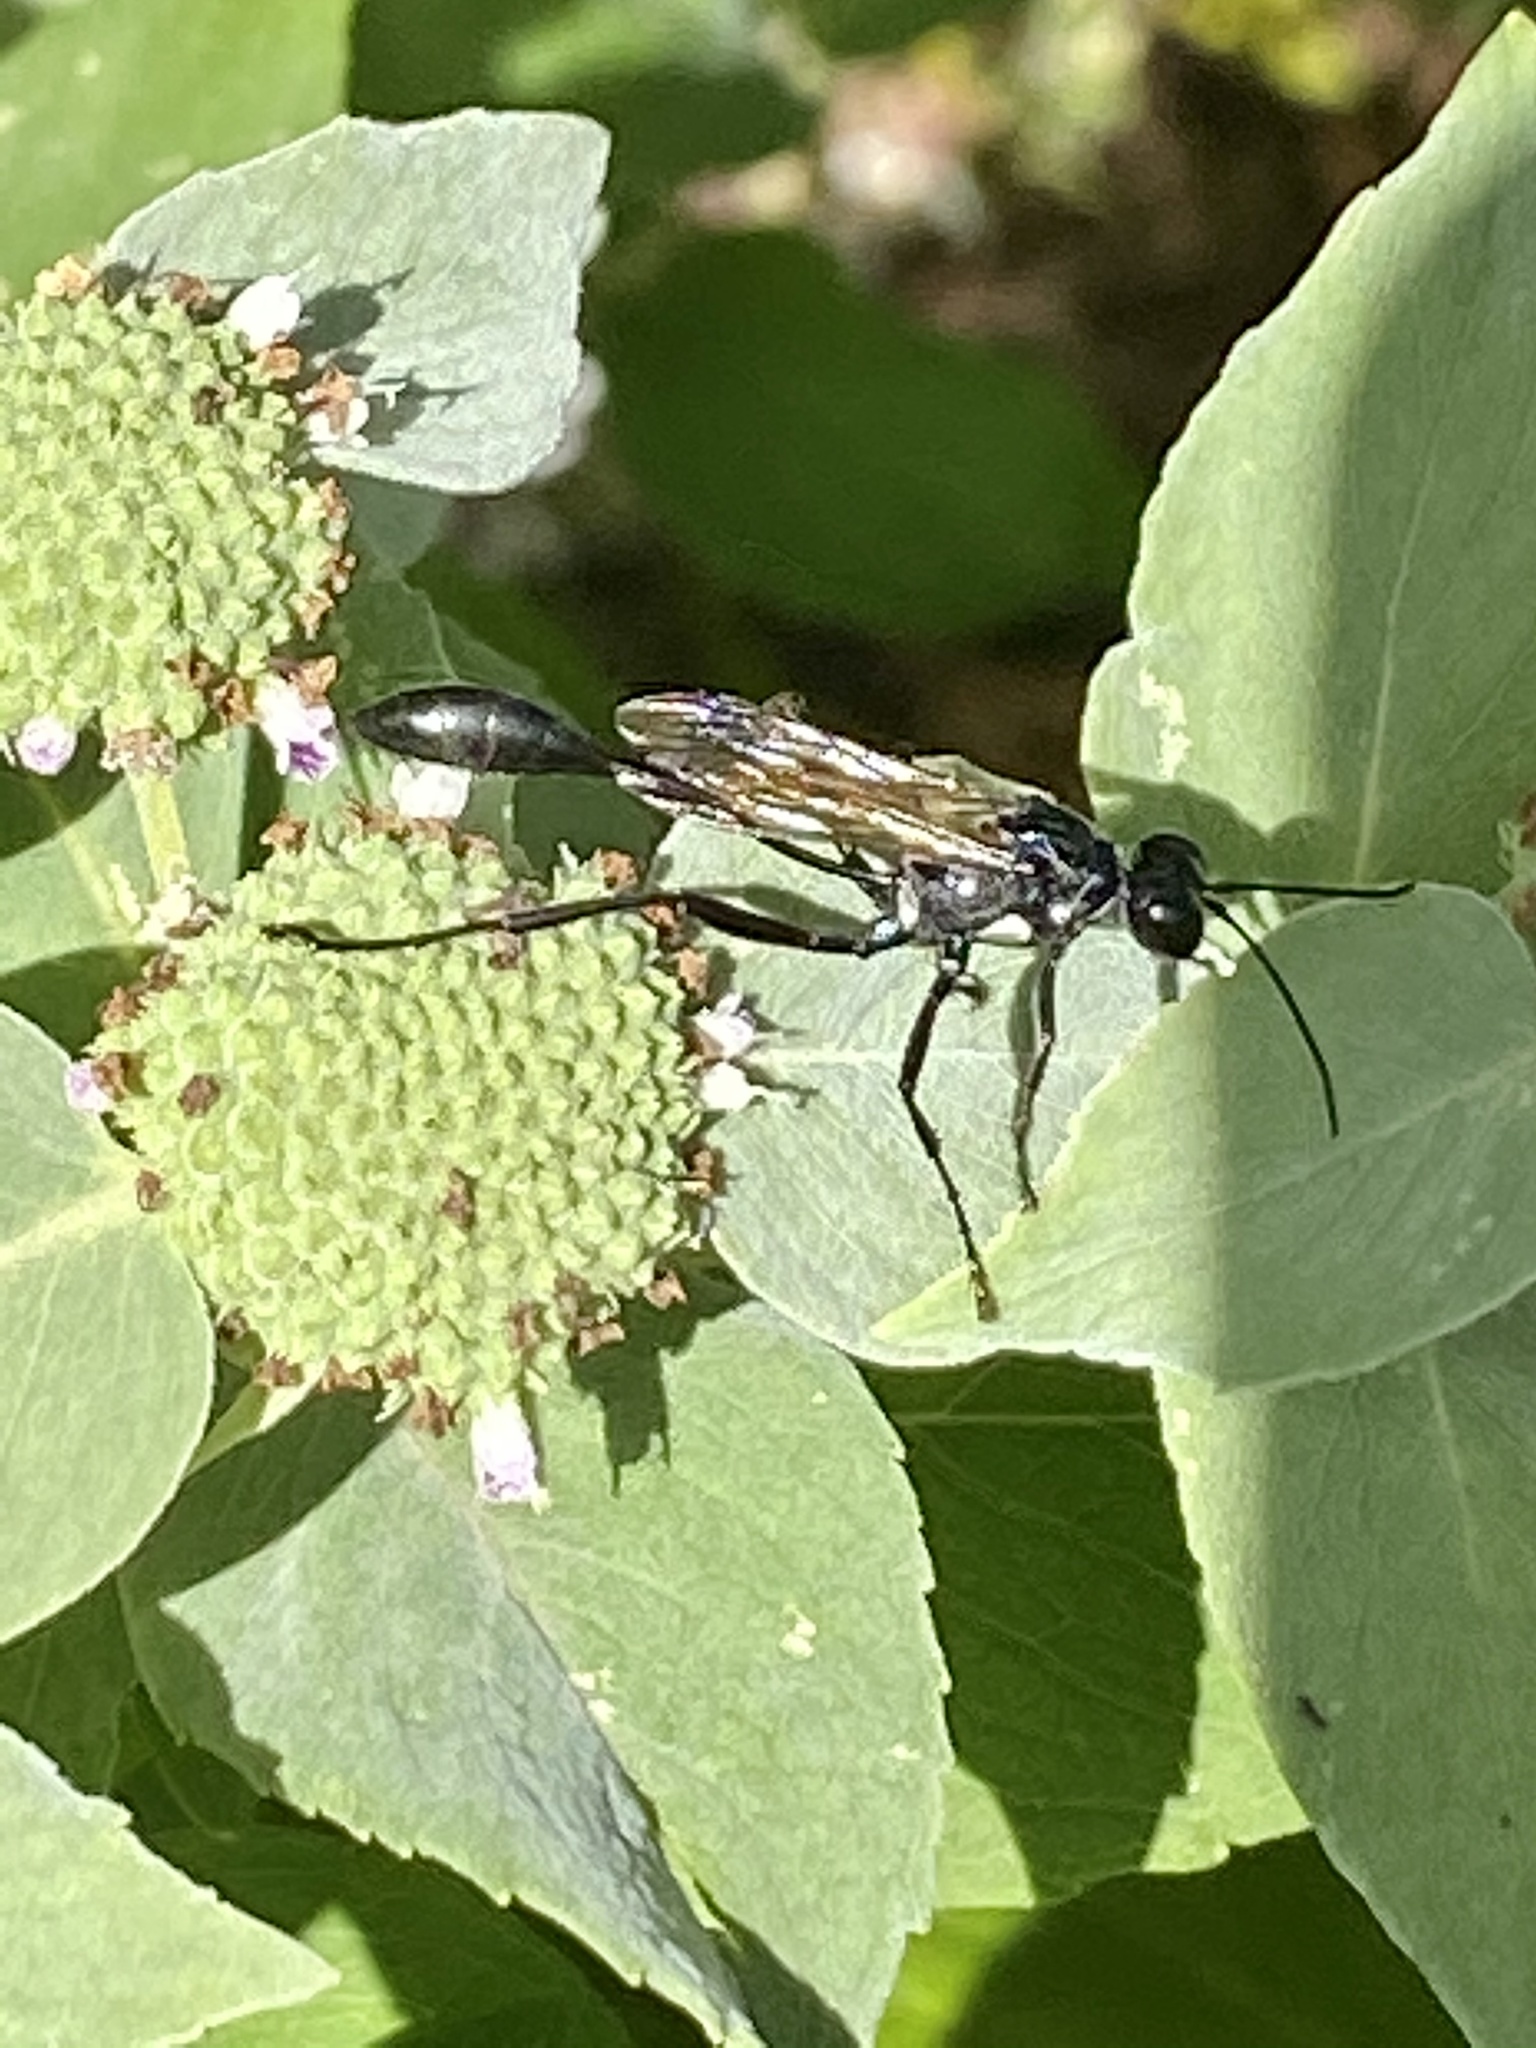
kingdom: Animalia
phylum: Arthropoda
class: Insecta
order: Hymenoptera
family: Sphecidae
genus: Eremnophila
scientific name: Eremnophila aureonotata
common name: Gold-marked thread-waisted wasp
